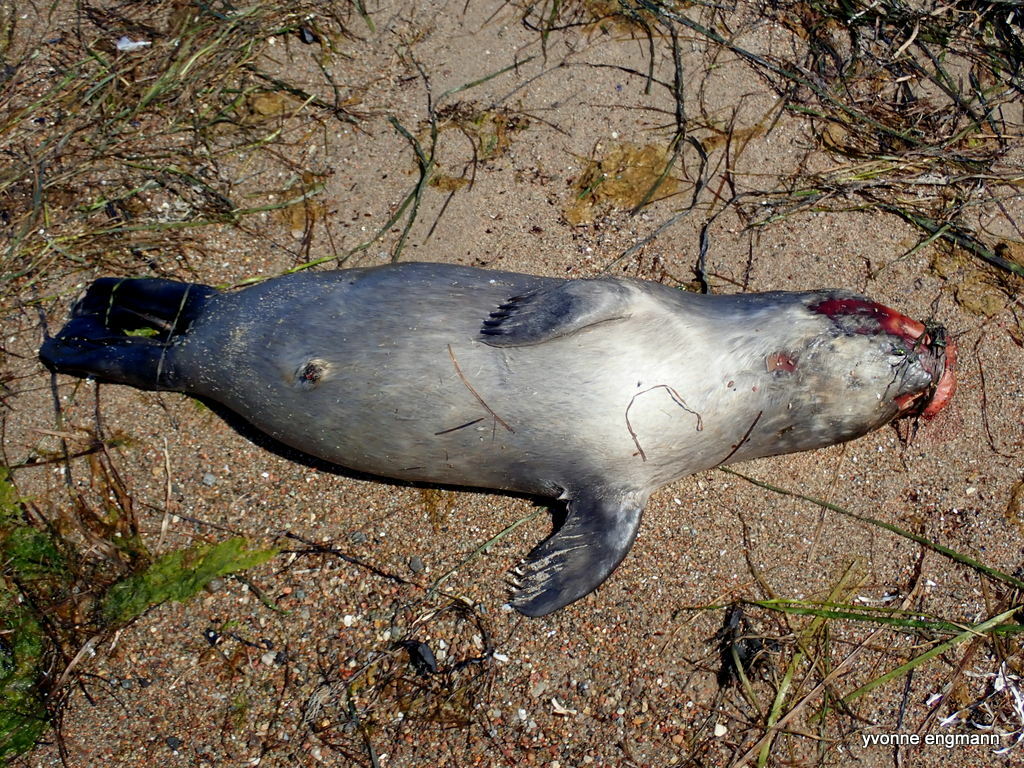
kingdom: Animalia
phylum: Chordata
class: Mammalia
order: Carnivora
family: Phocidae
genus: Phoca
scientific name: Phoca vitulina
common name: Harbor seal
